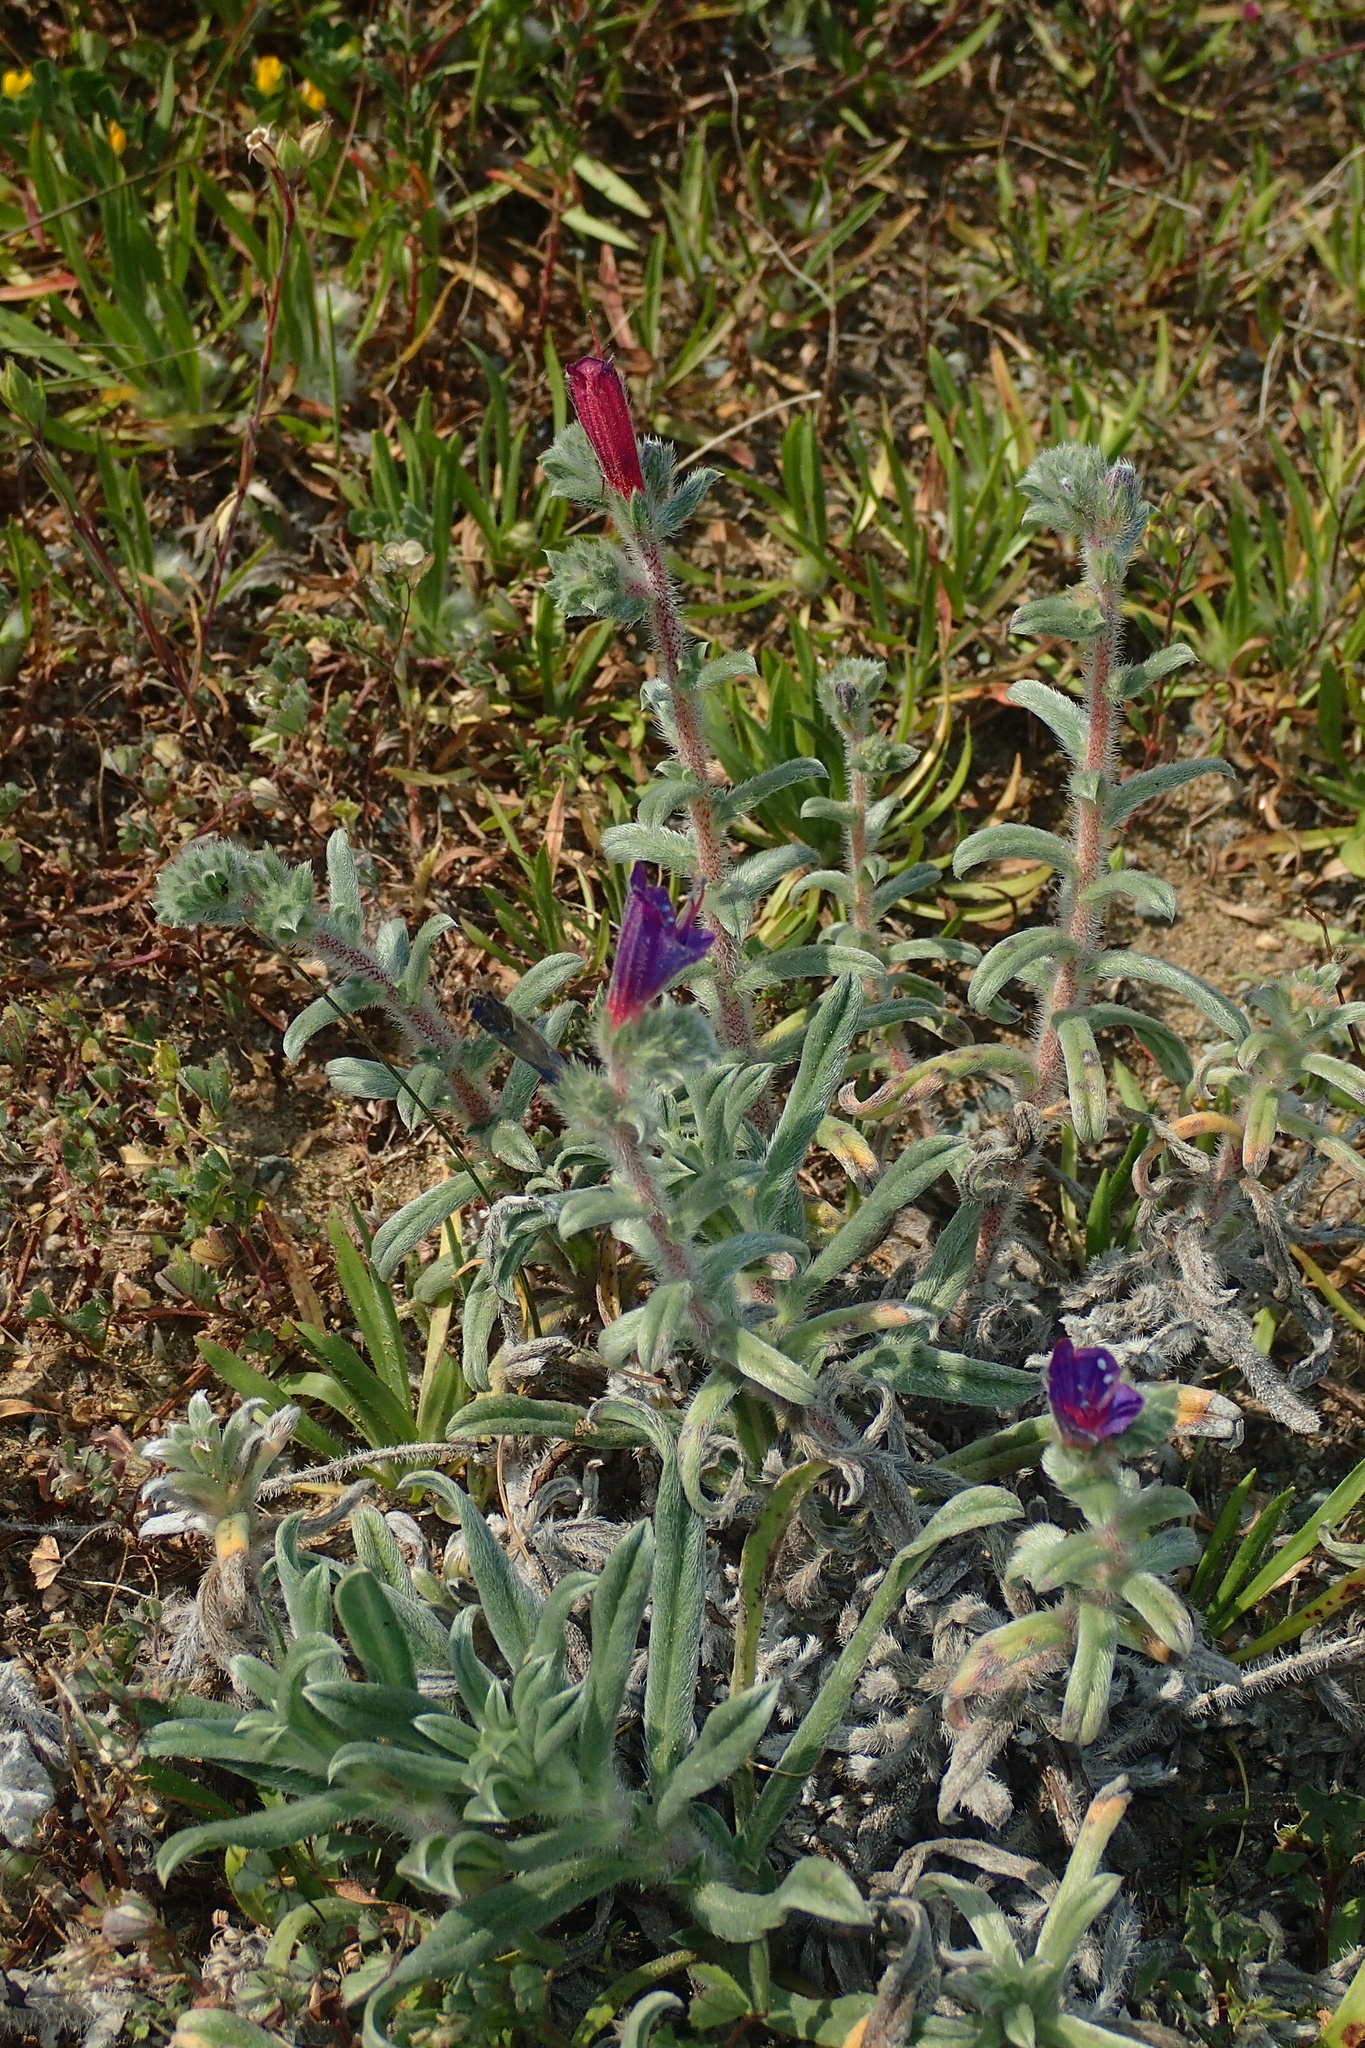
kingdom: Plantae
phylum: Tracheophyta
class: Magnoliopsida
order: Boraginales
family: Boraginaceae
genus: Echium
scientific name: Echium angustifolium
